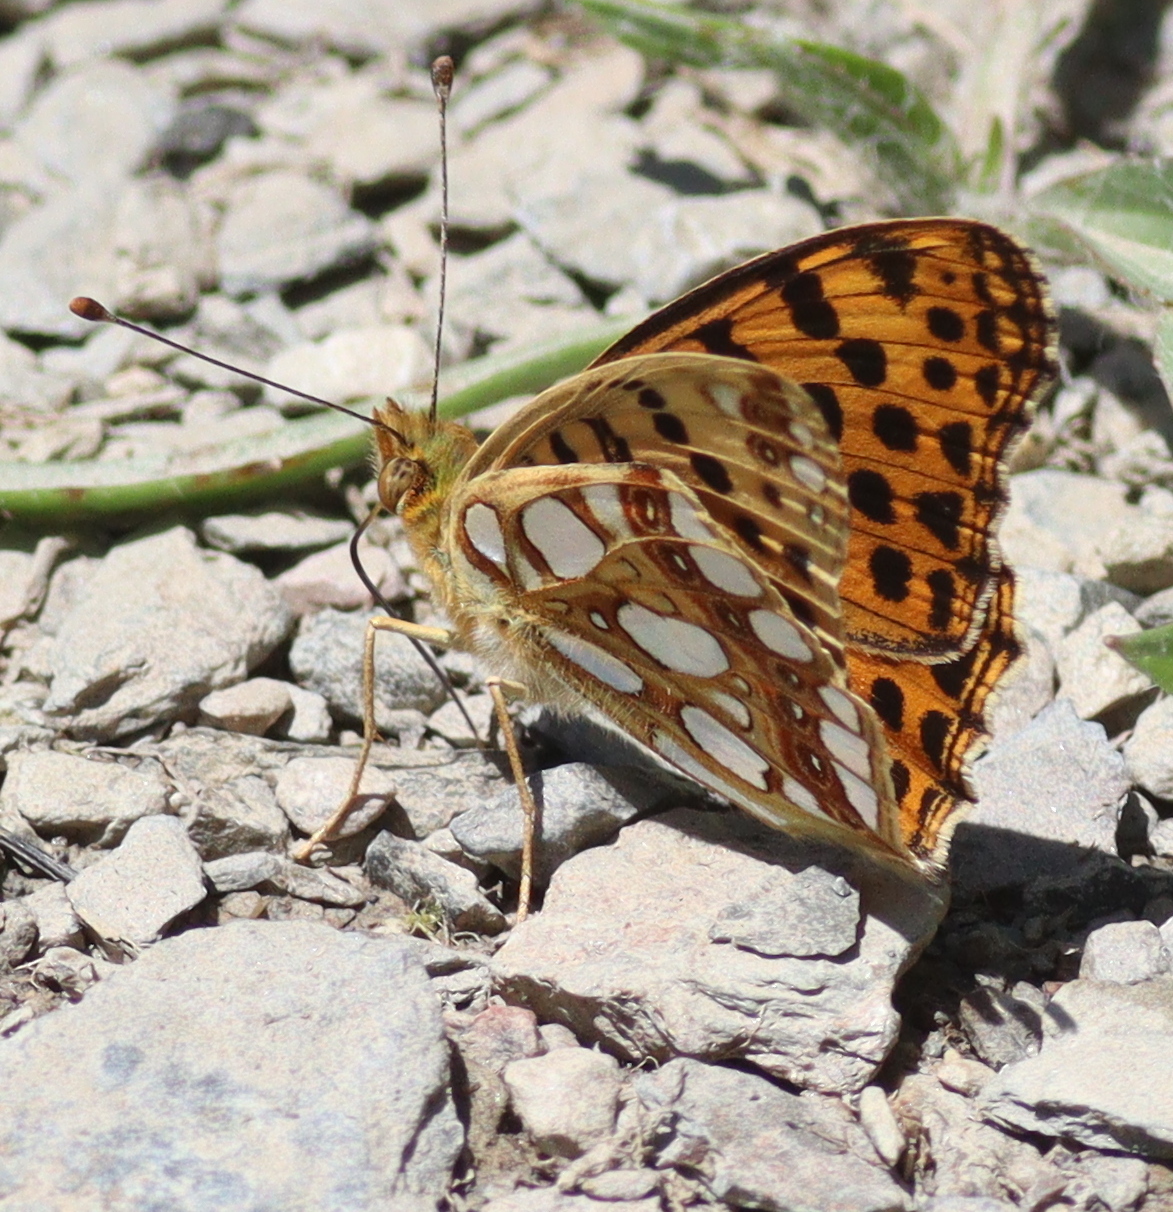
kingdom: Animalia
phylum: Arthropoda
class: Insecta
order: Lepidoptera
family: Nymphalidae
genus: Issoria
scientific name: Issoria lathonia
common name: Queen of spain fritillary
